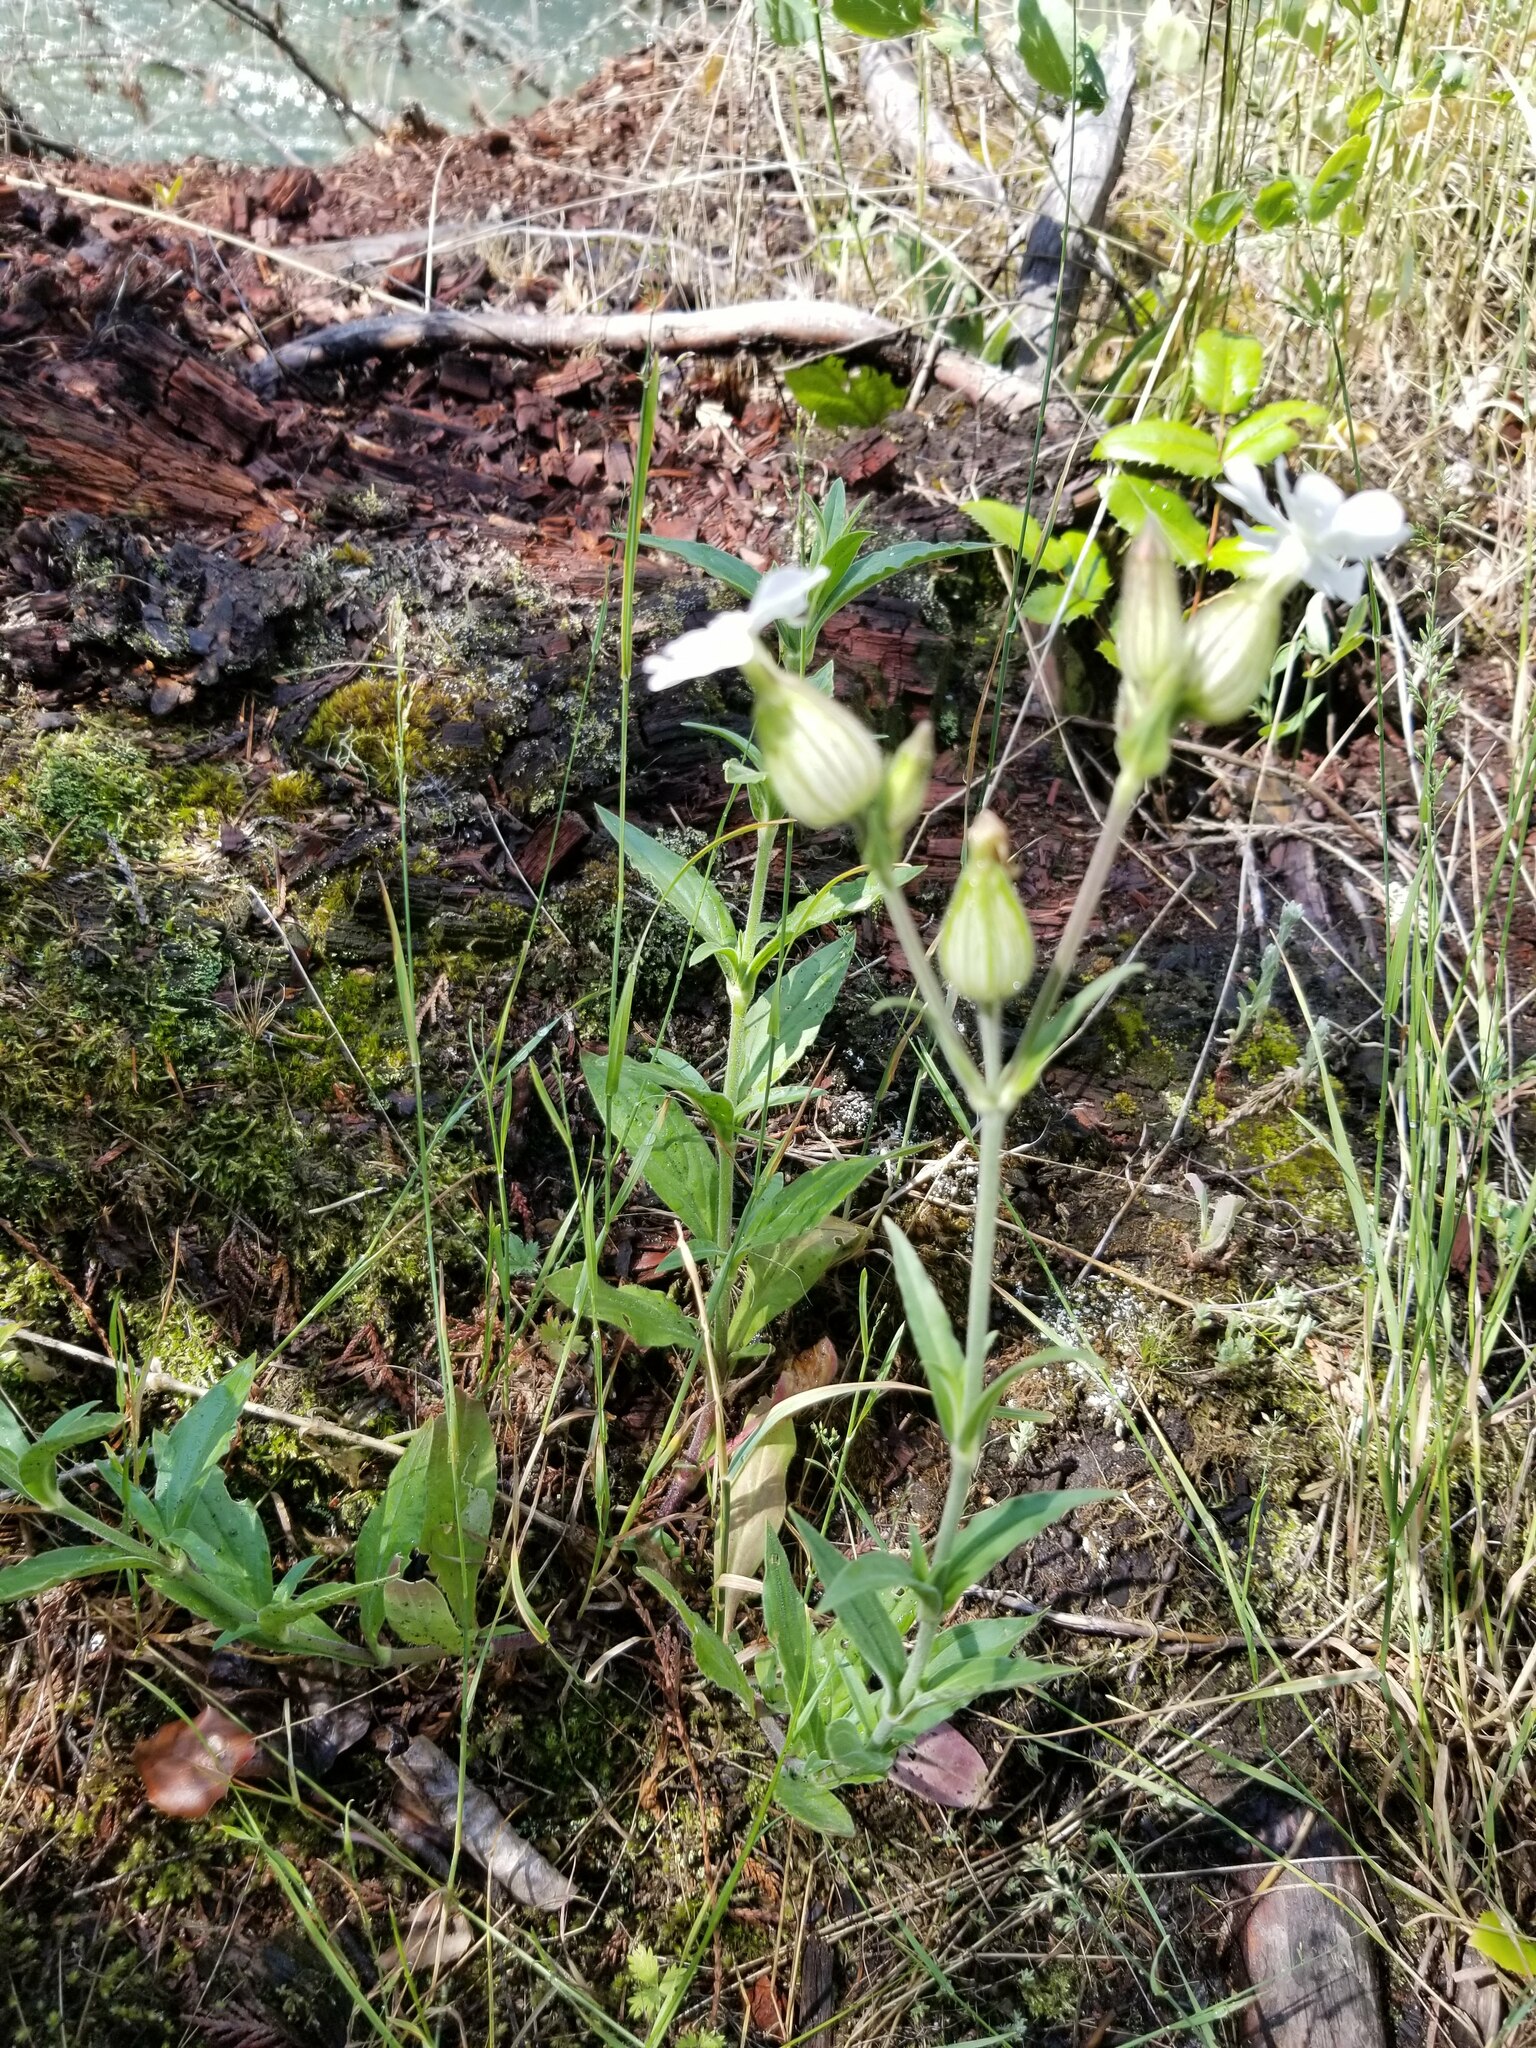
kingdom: Plantae
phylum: Tracheophyta
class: Magnoliopsida
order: Caryophyllales
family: Caryophyllaceae
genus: Silene
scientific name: Silene latifolia
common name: White campion
